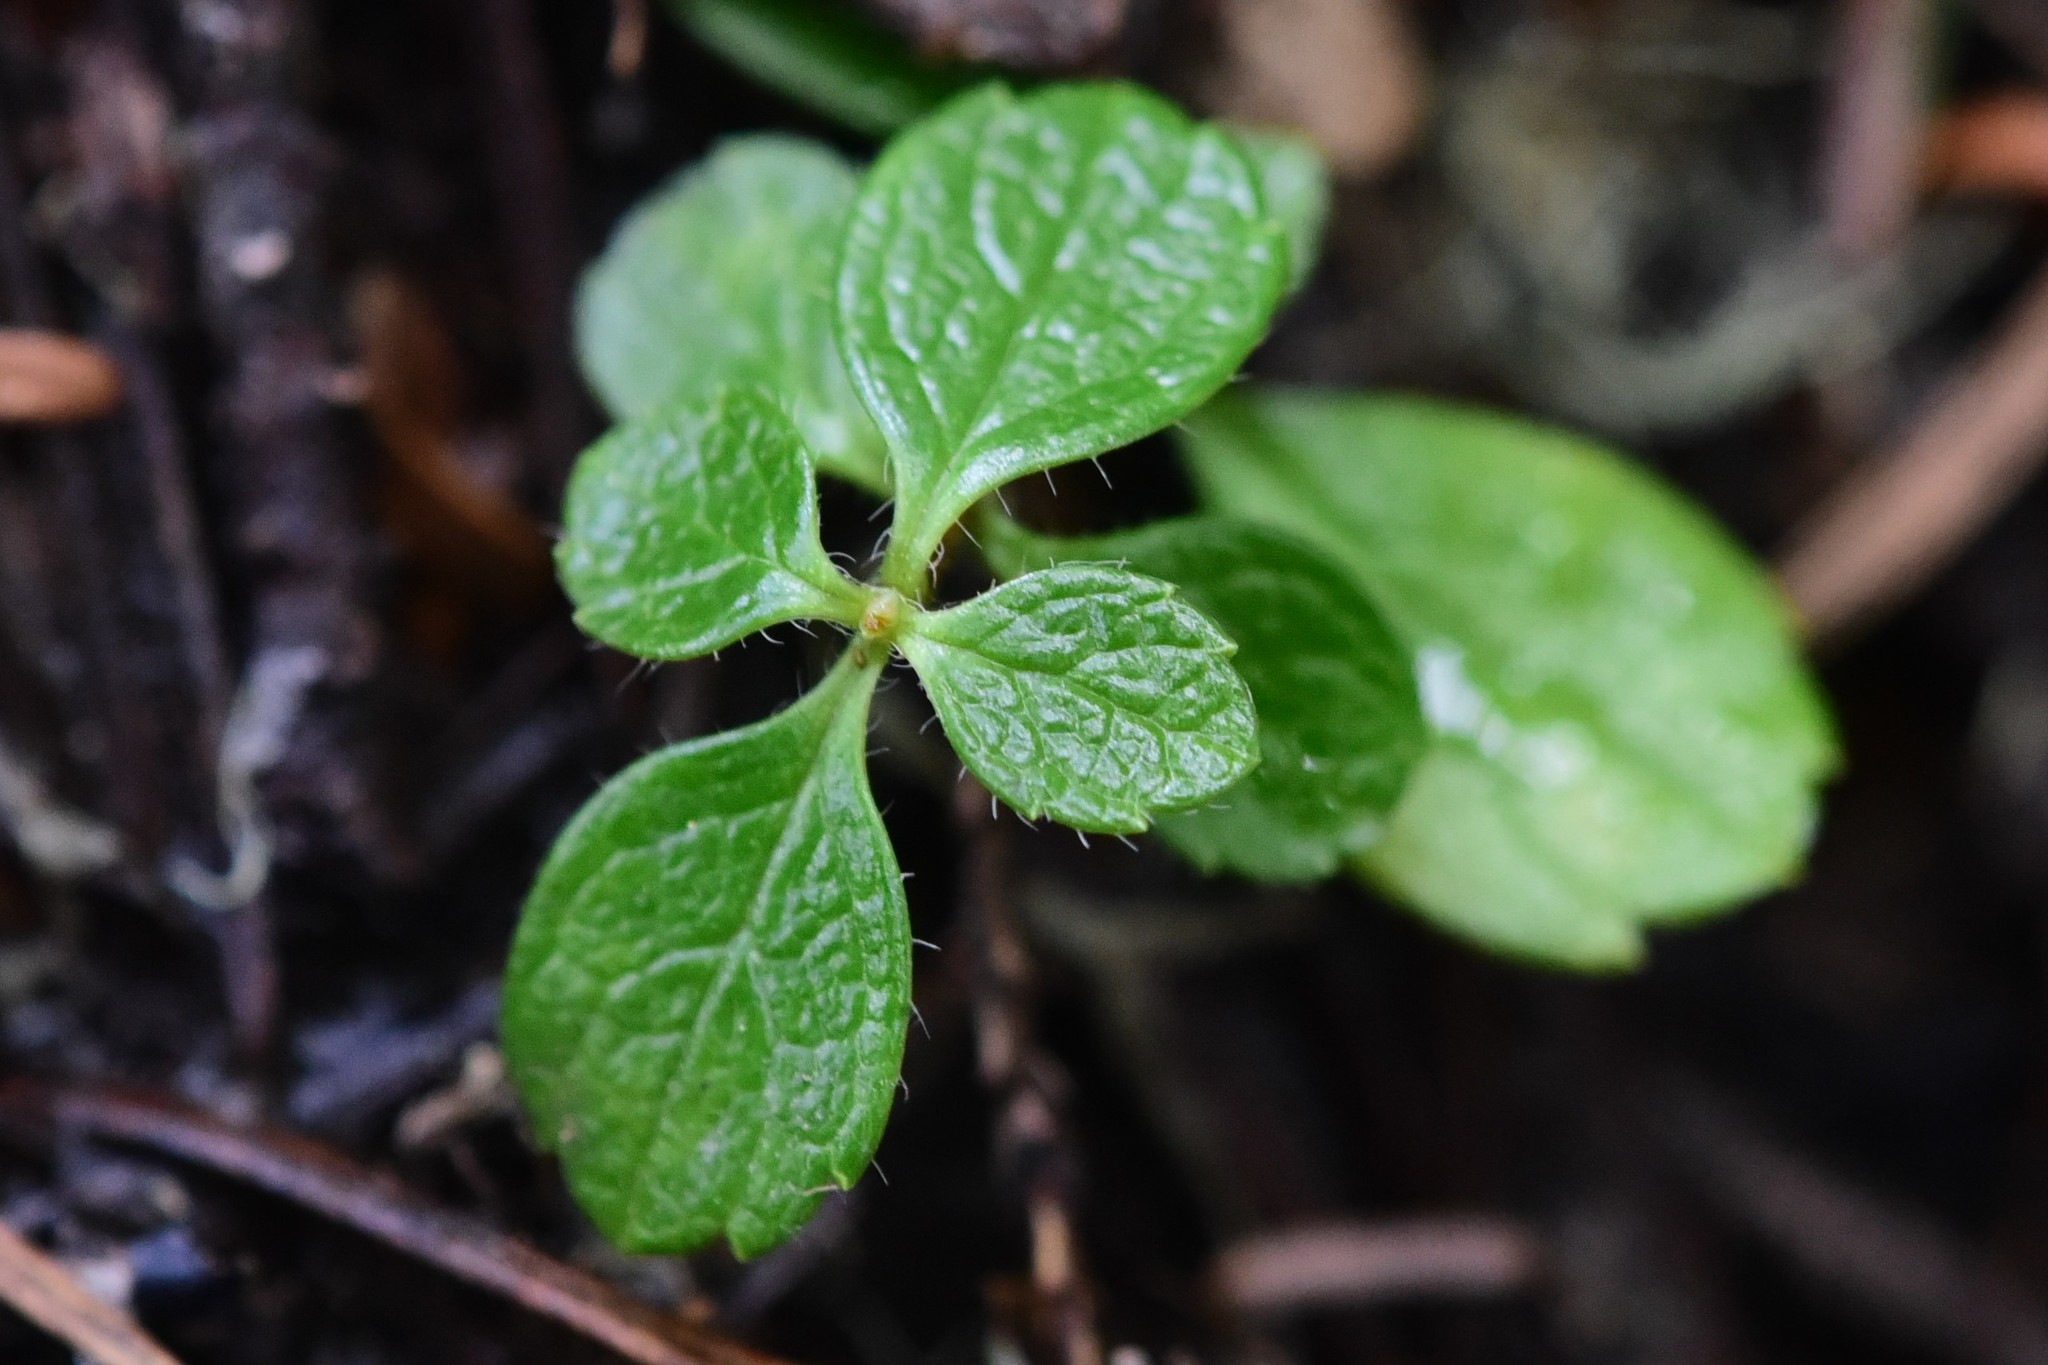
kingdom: Plantae
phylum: Tracheophyta
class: Magnoliopsida
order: Dipsacales
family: Caprifoliaceae
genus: Linnaea
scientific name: Linnaea borealis
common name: Twinflower
